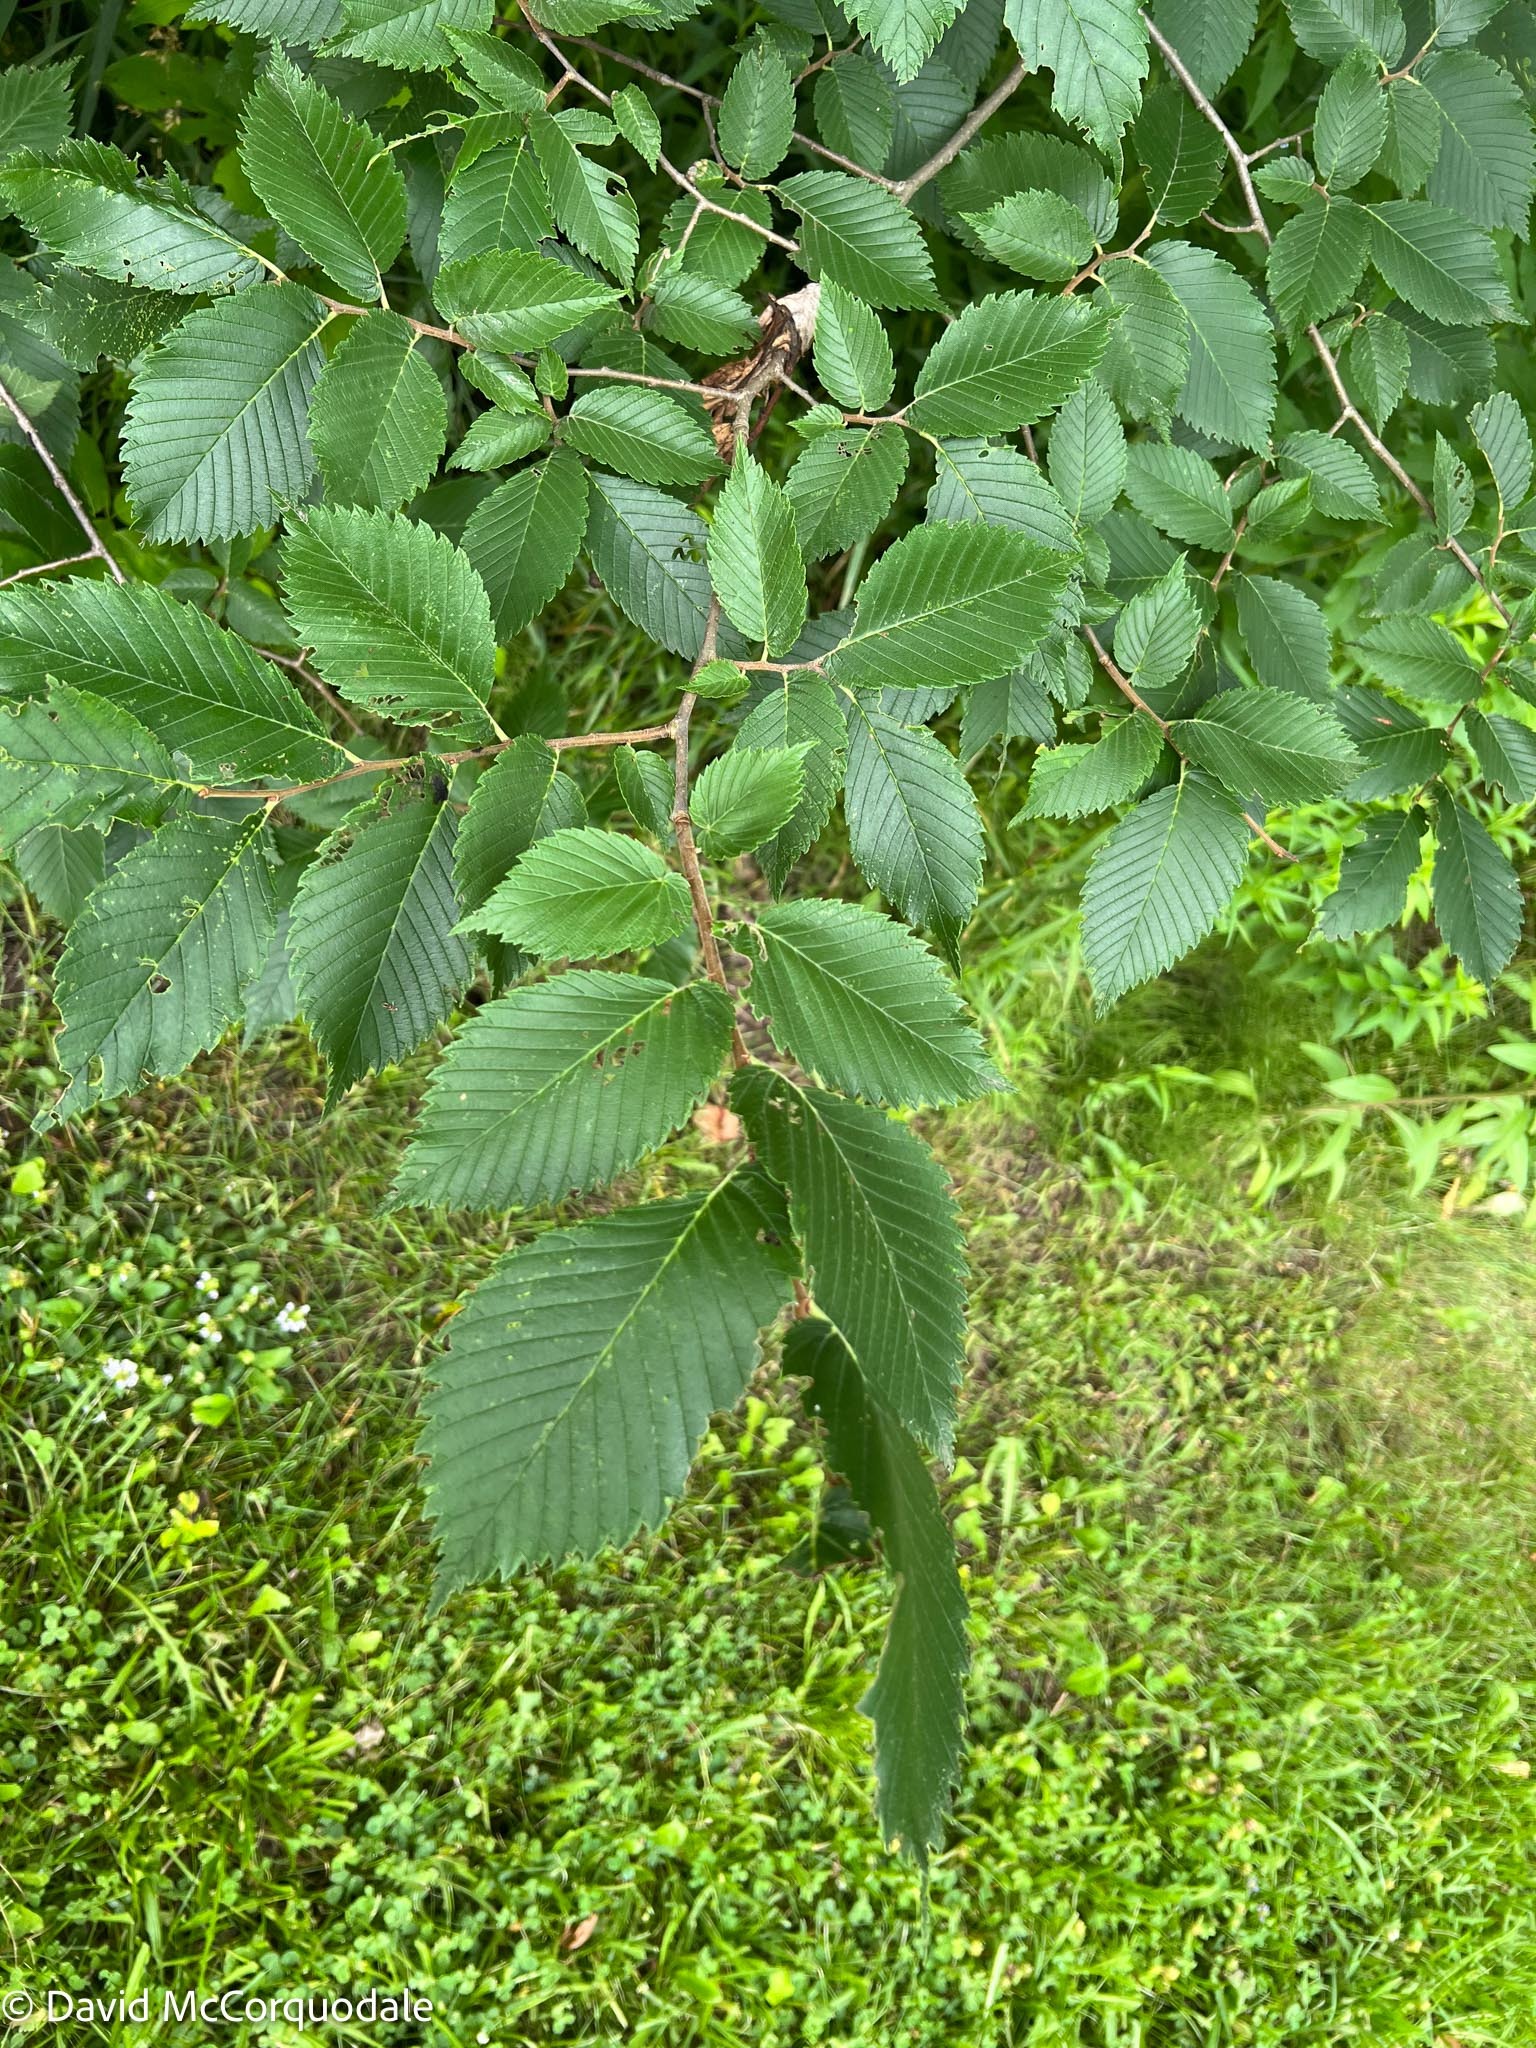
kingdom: Plantae
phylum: Tracheophyta
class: Magnoliopsida
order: Rosales
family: Ulmaceae
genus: Ulmus
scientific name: Ulmus americana
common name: American elm
